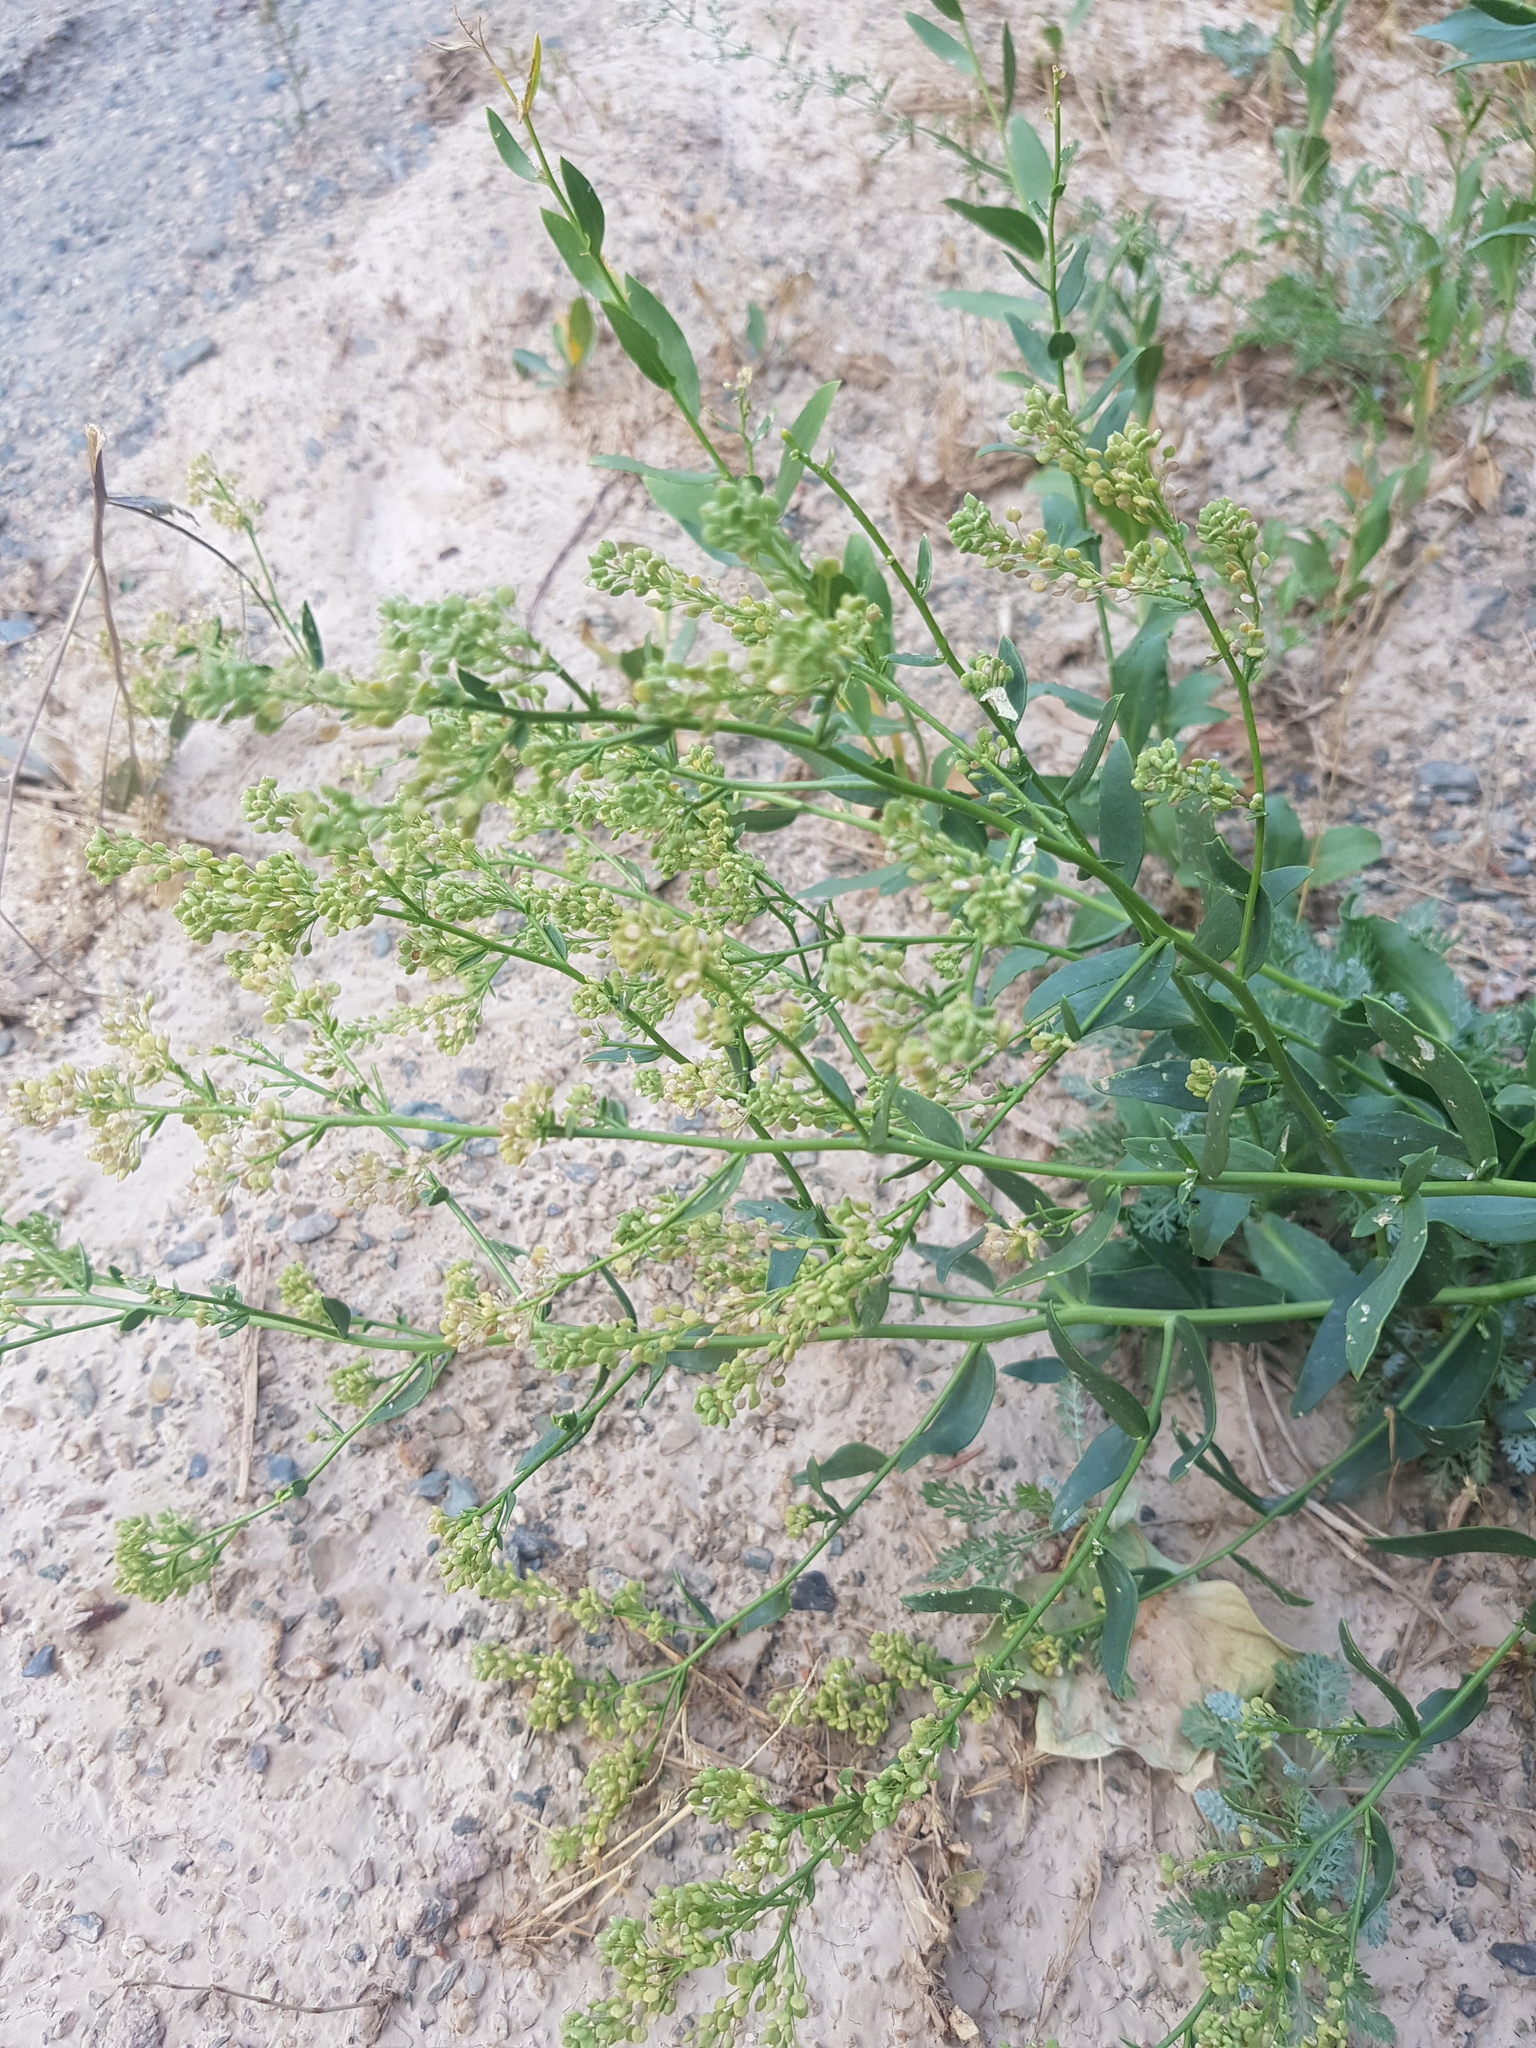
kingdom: Plantae
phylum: Tracheophyta
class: Magnoliopsida
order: Brassicales
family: Brassicaceae
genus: Lepidium
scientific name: Lepidium latifolium
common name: Dittander
